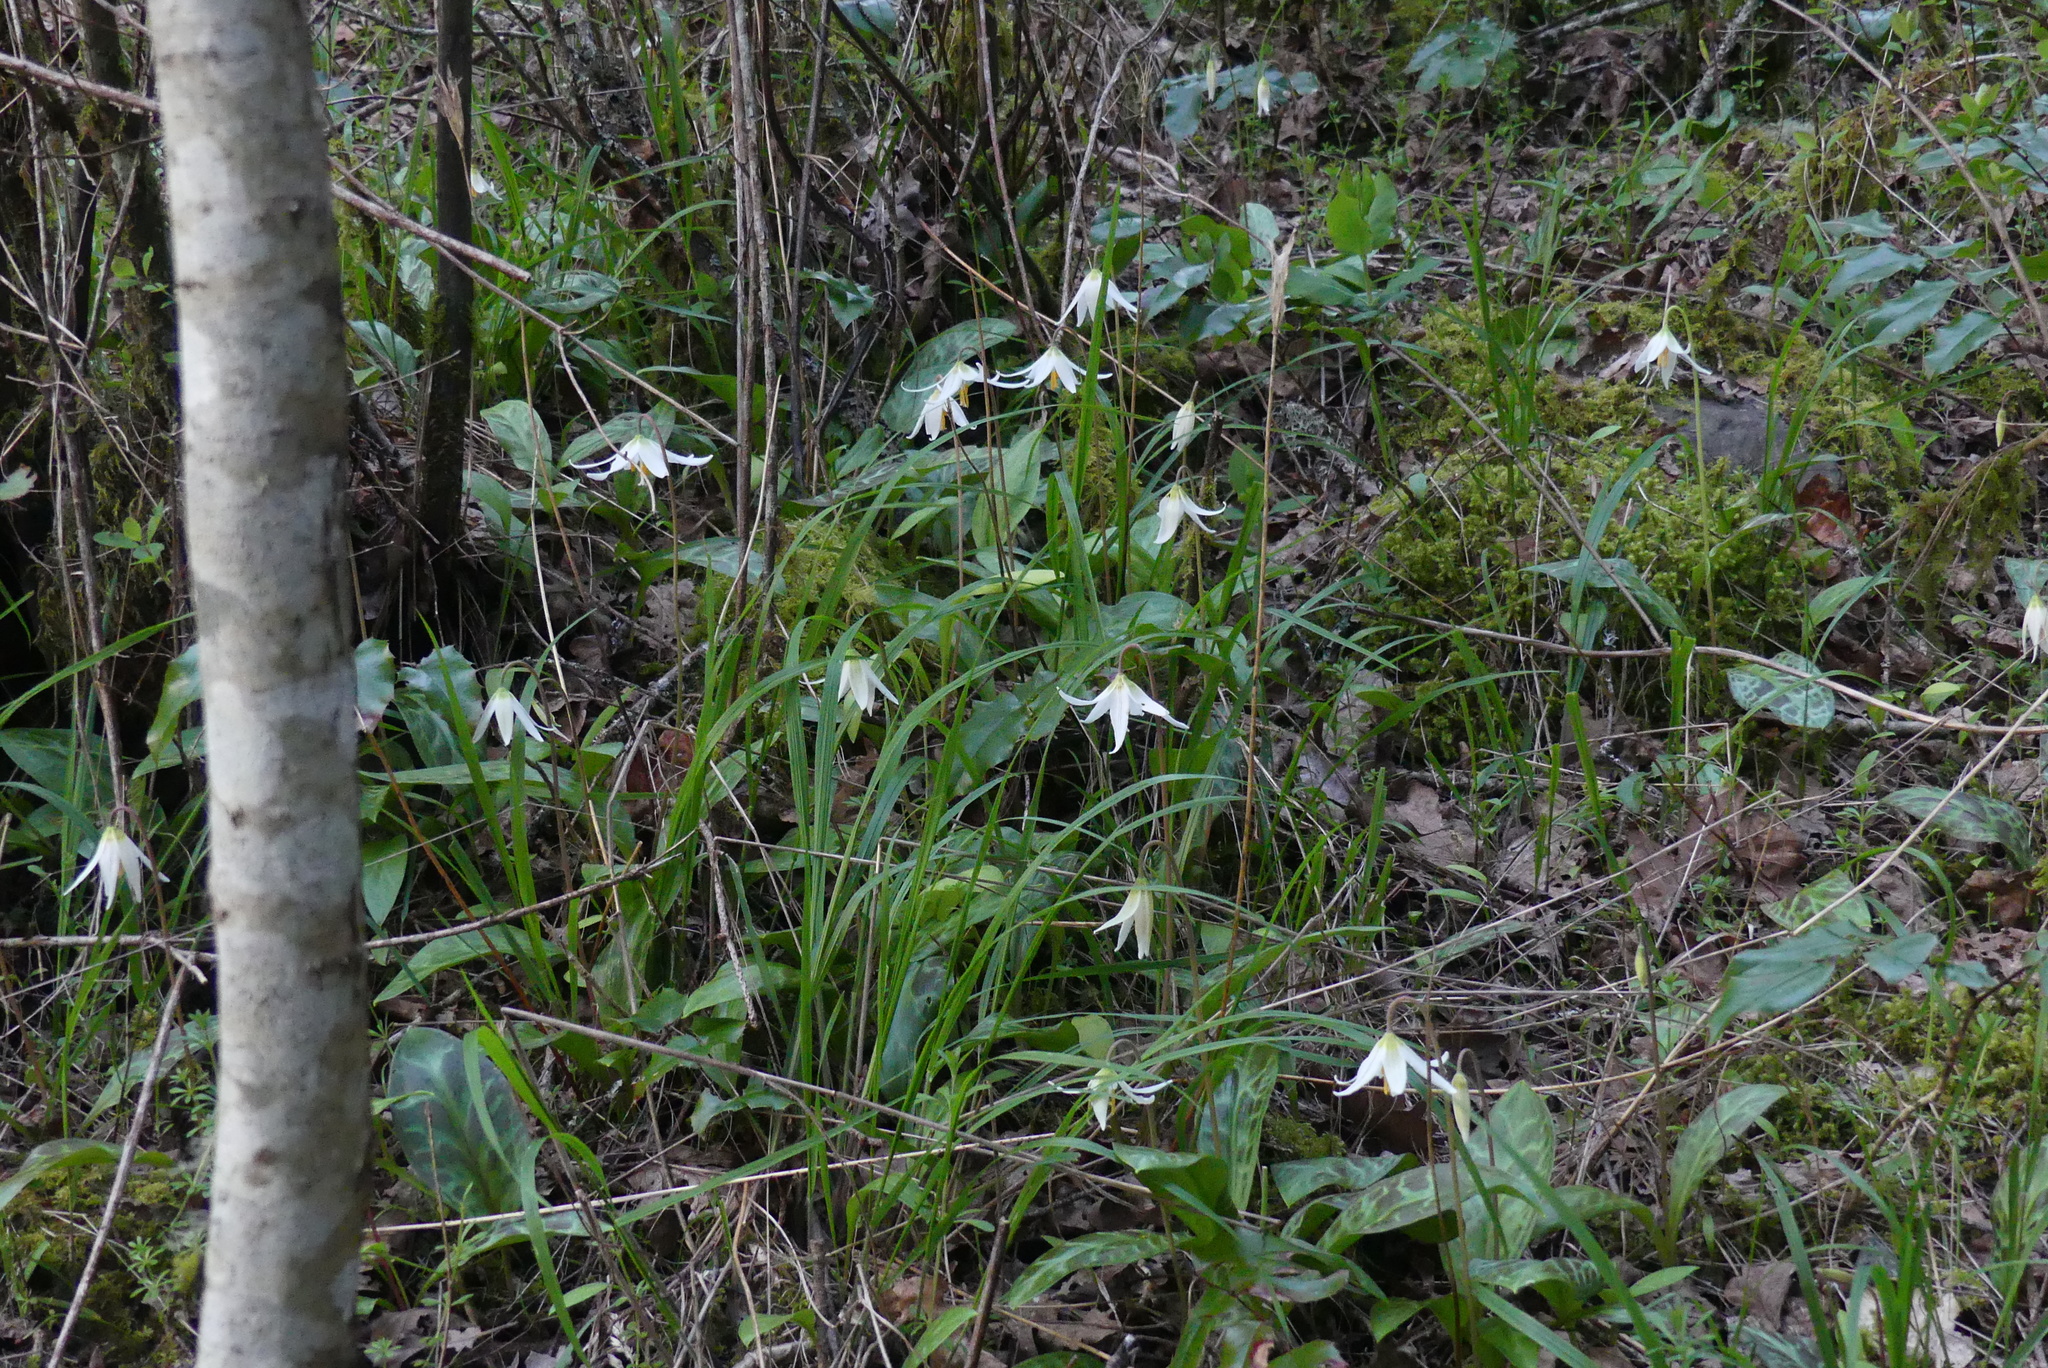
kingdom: Plantae
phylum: Tracheophyta
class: Liliopsida
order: Liliales
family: Liliaceae
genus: Erythronium
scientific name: Erythronium oregonum
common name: Giant adder's-tongue
